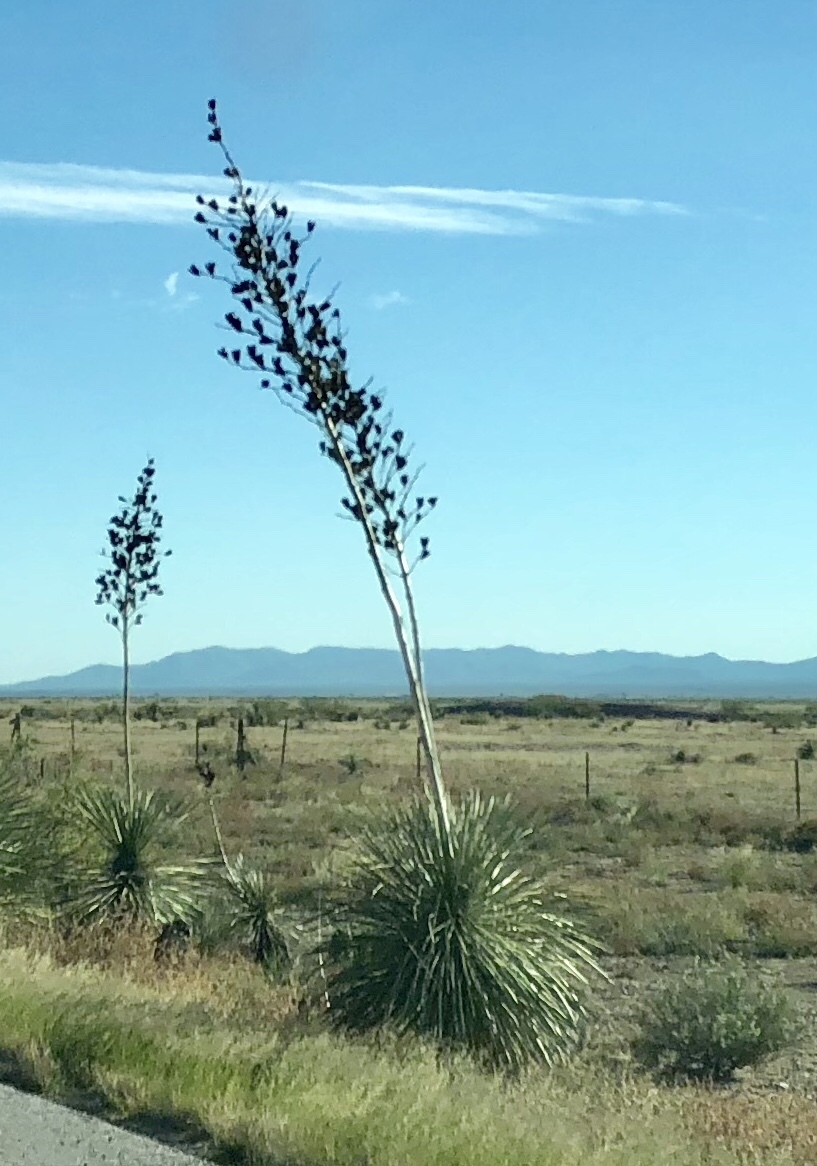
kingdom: Plantae
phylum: Tracheophyta
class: Liliopsida
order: Asparagales
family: Asparagaceae
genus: Yucca
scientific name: Yucca elata
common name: Palmella
